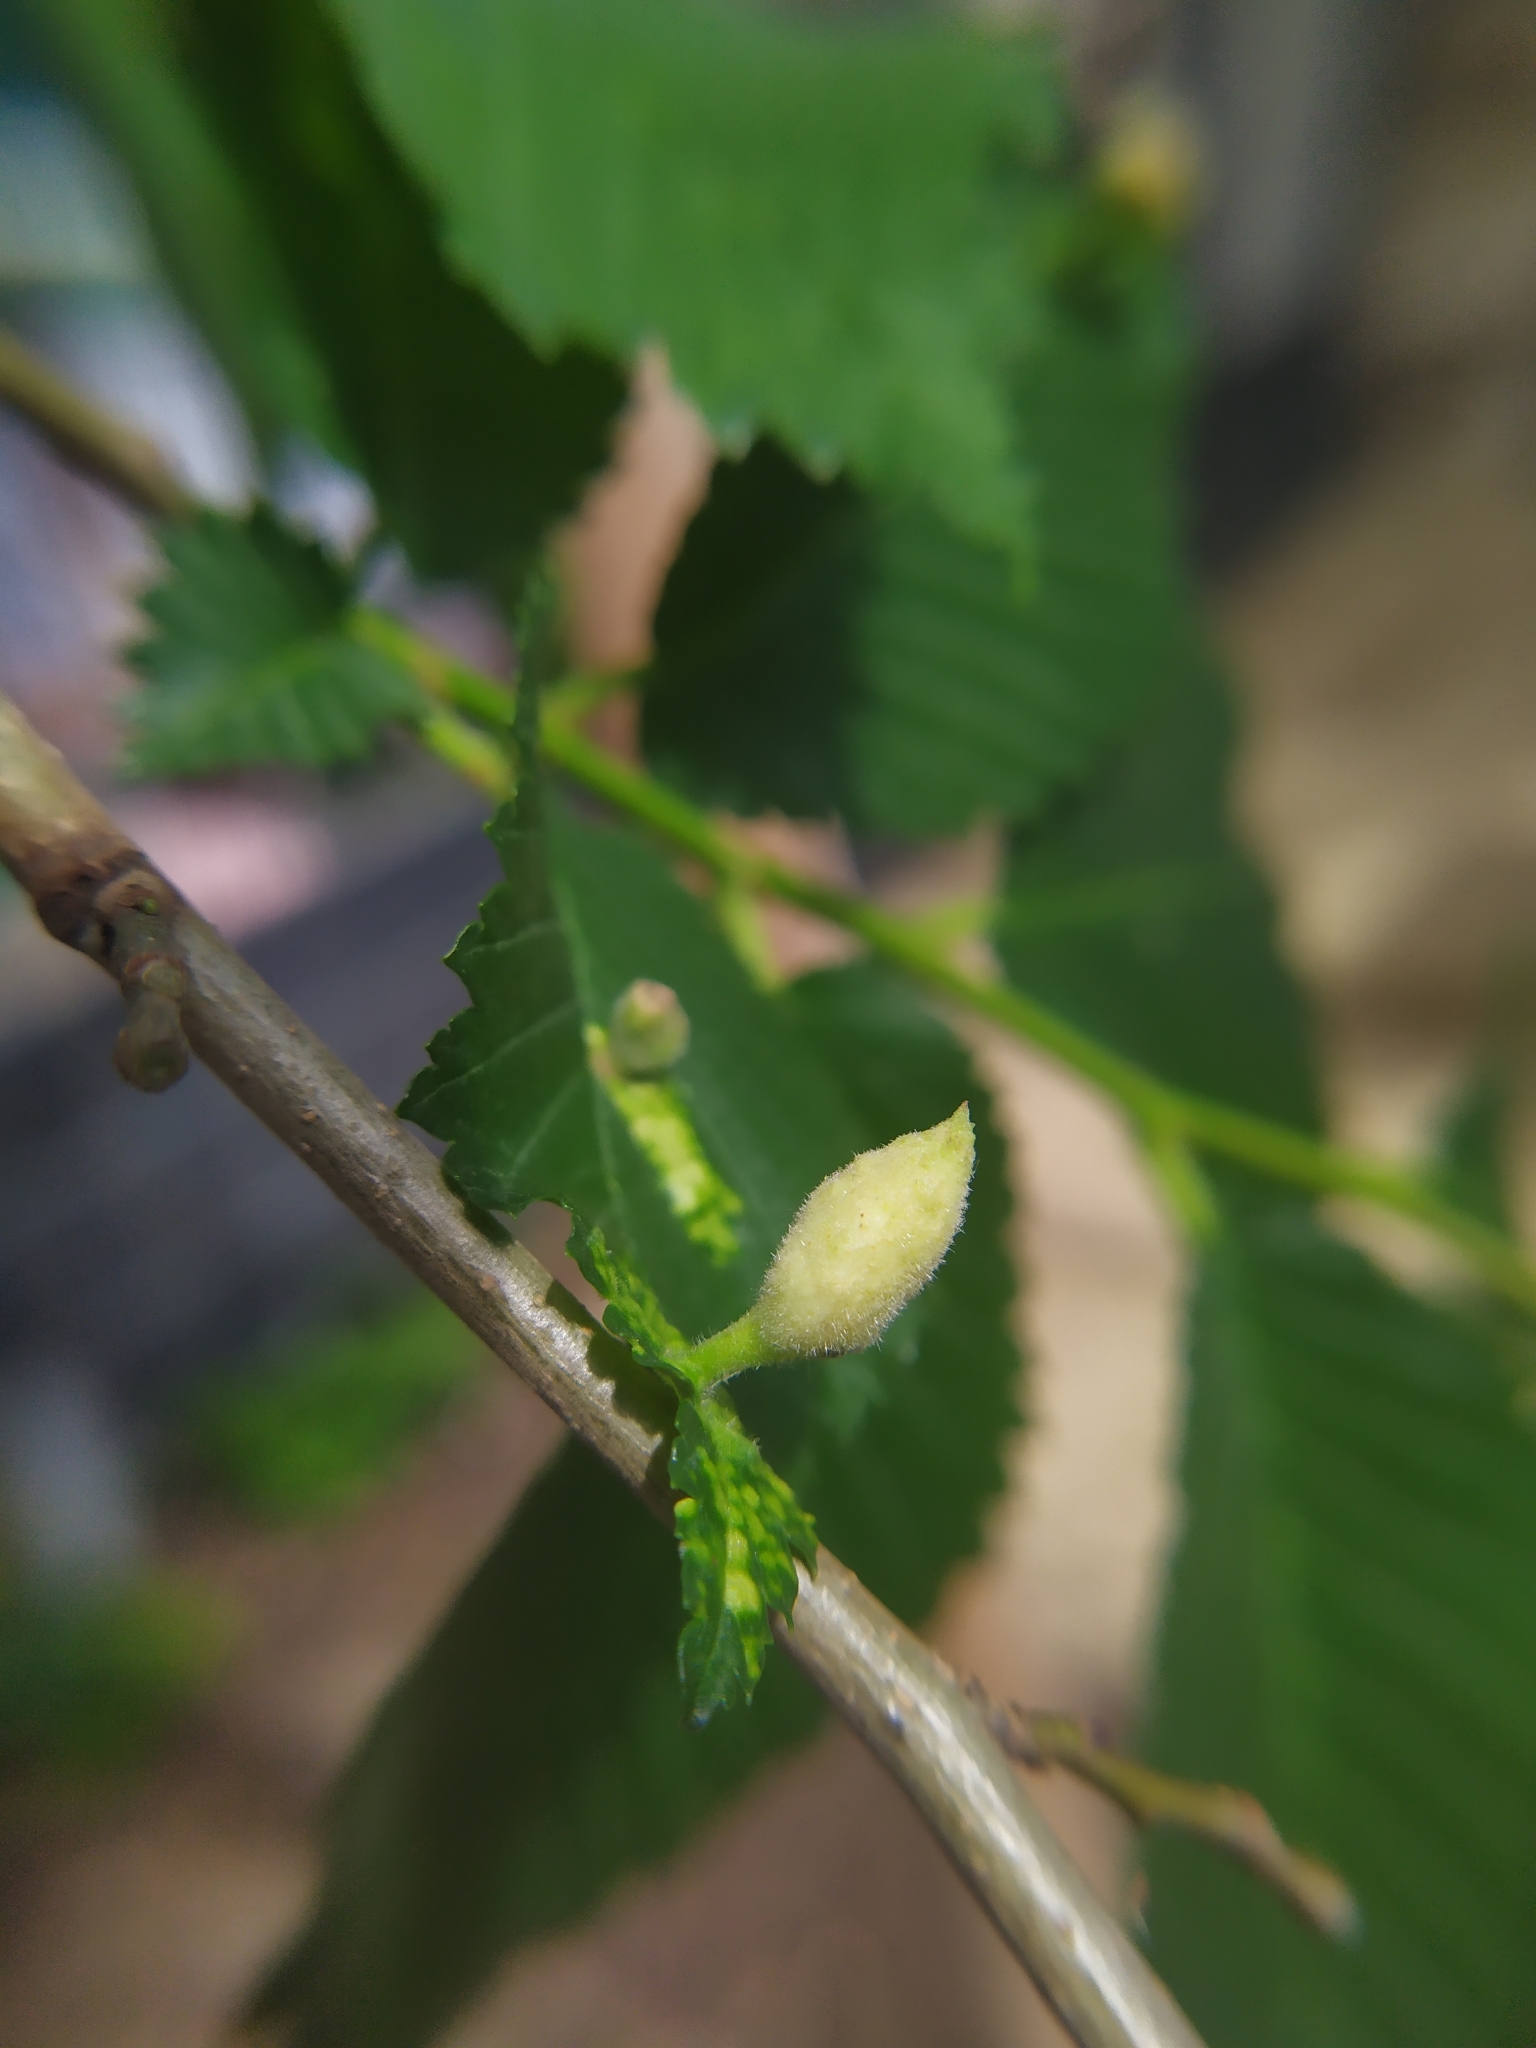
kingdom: Animalia
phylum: Arthropoda
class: Insecta
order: Hemiptera
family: Aphididae
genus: Tetraneura
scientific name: Tetraneura nigriabdominalis
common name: Aphid
